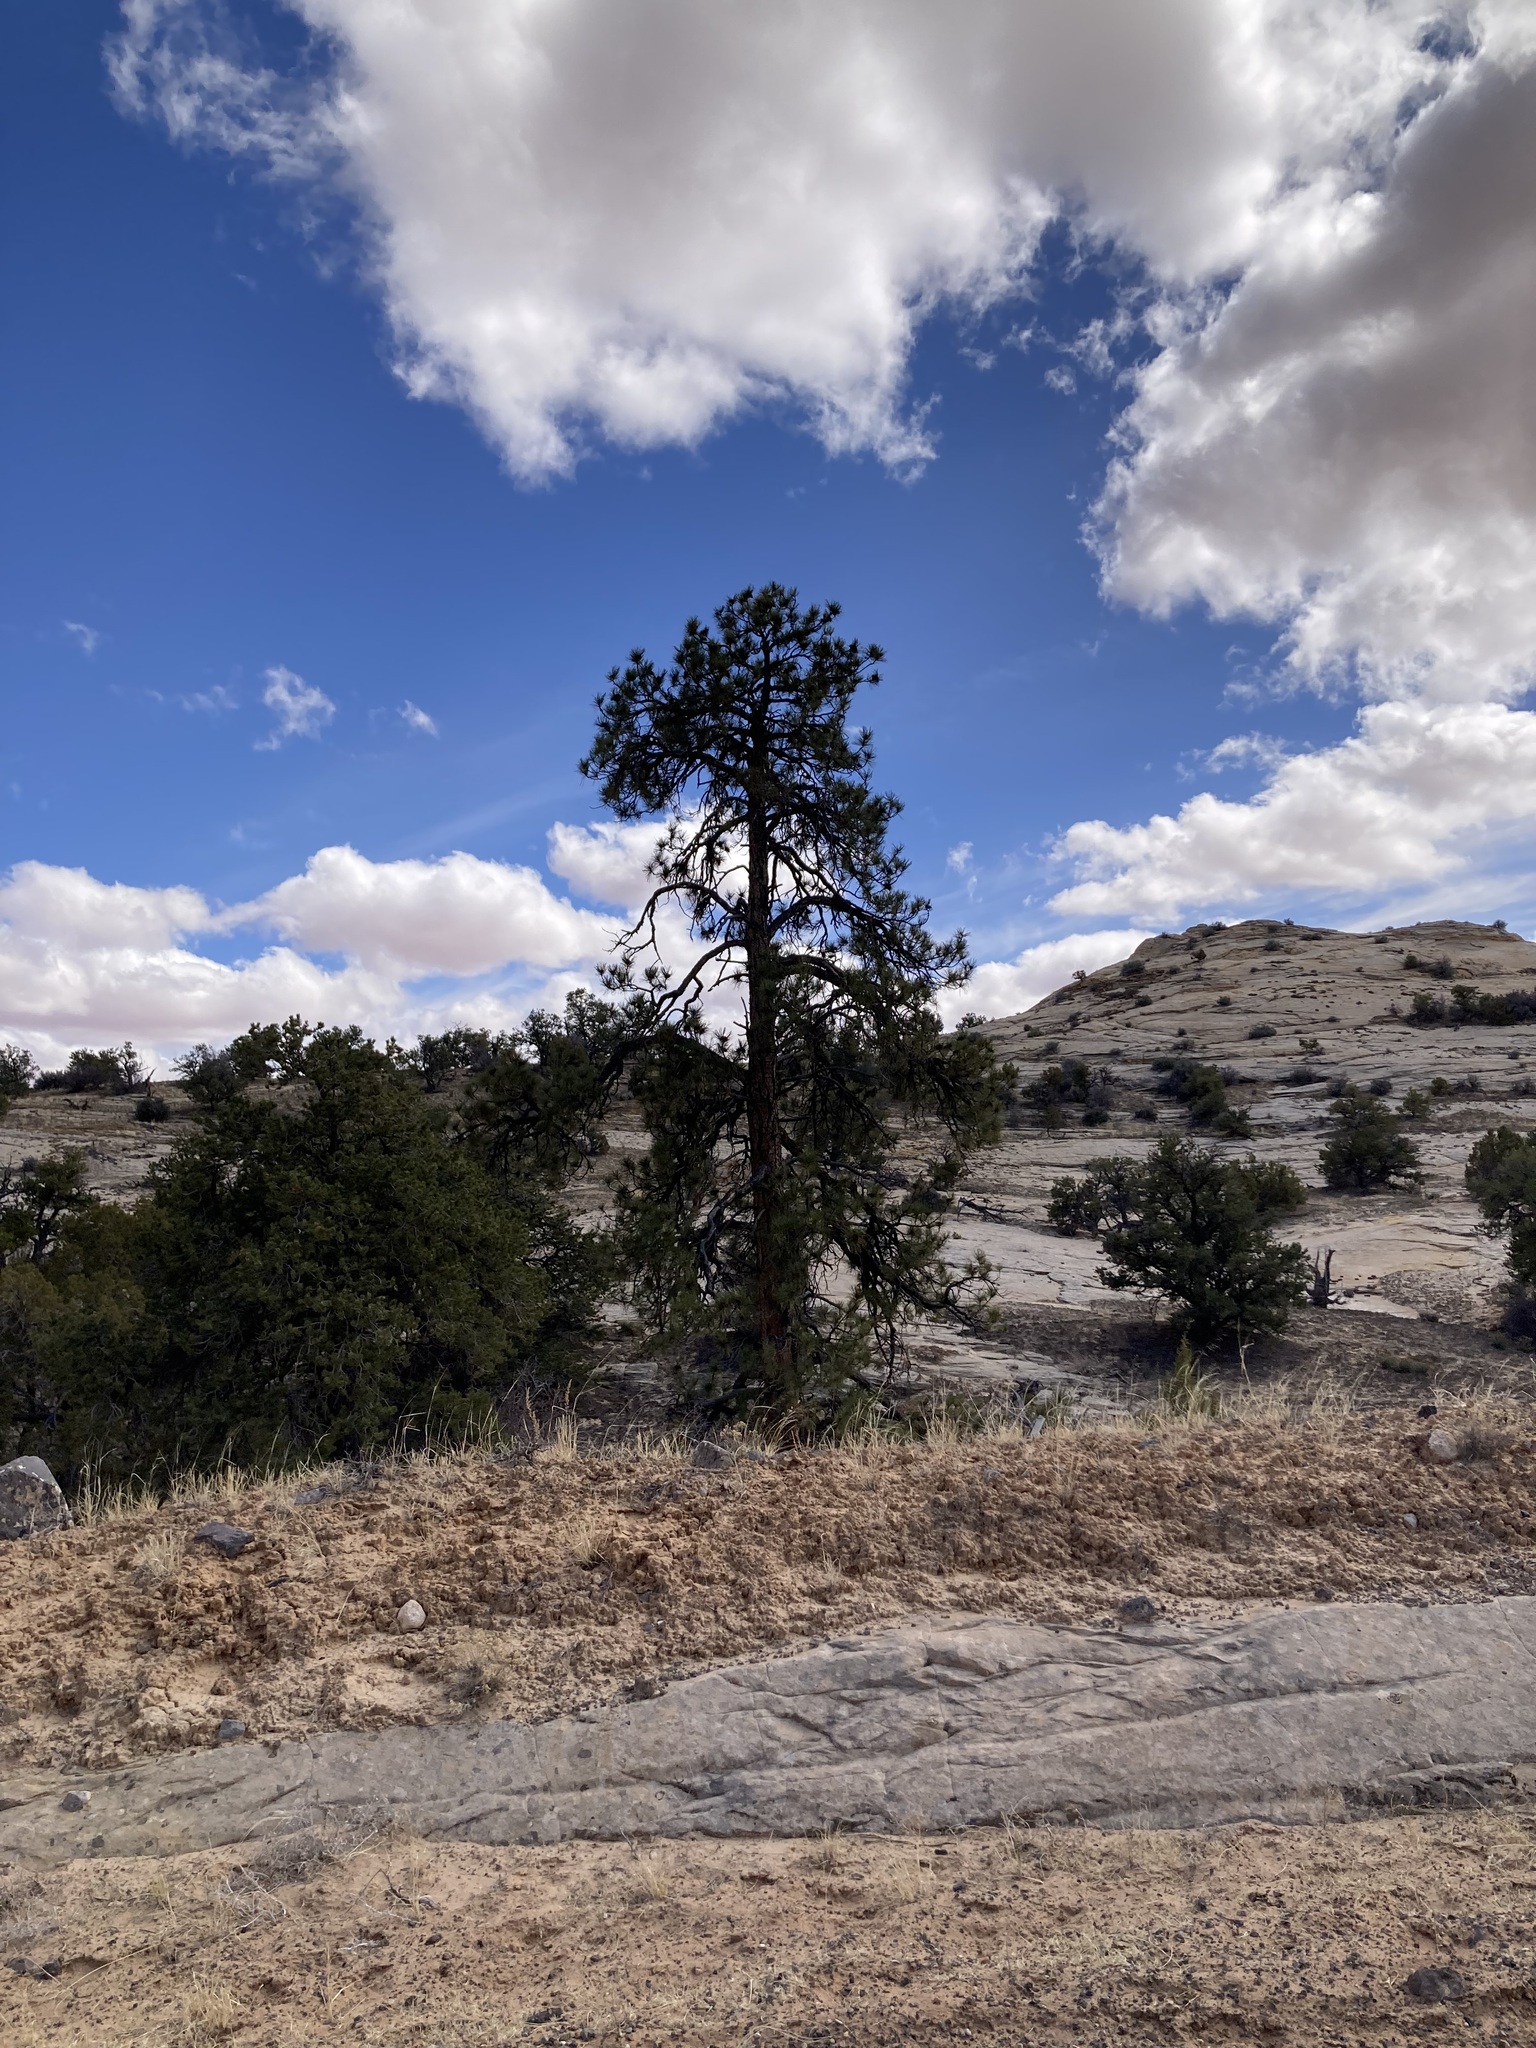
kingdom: Plantae
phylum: Tracheophyta
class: Pinopsida
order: Pinales
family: Pinaceae
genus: Pinus
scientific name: Pinus ponderosa
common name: Western yellow-pine
